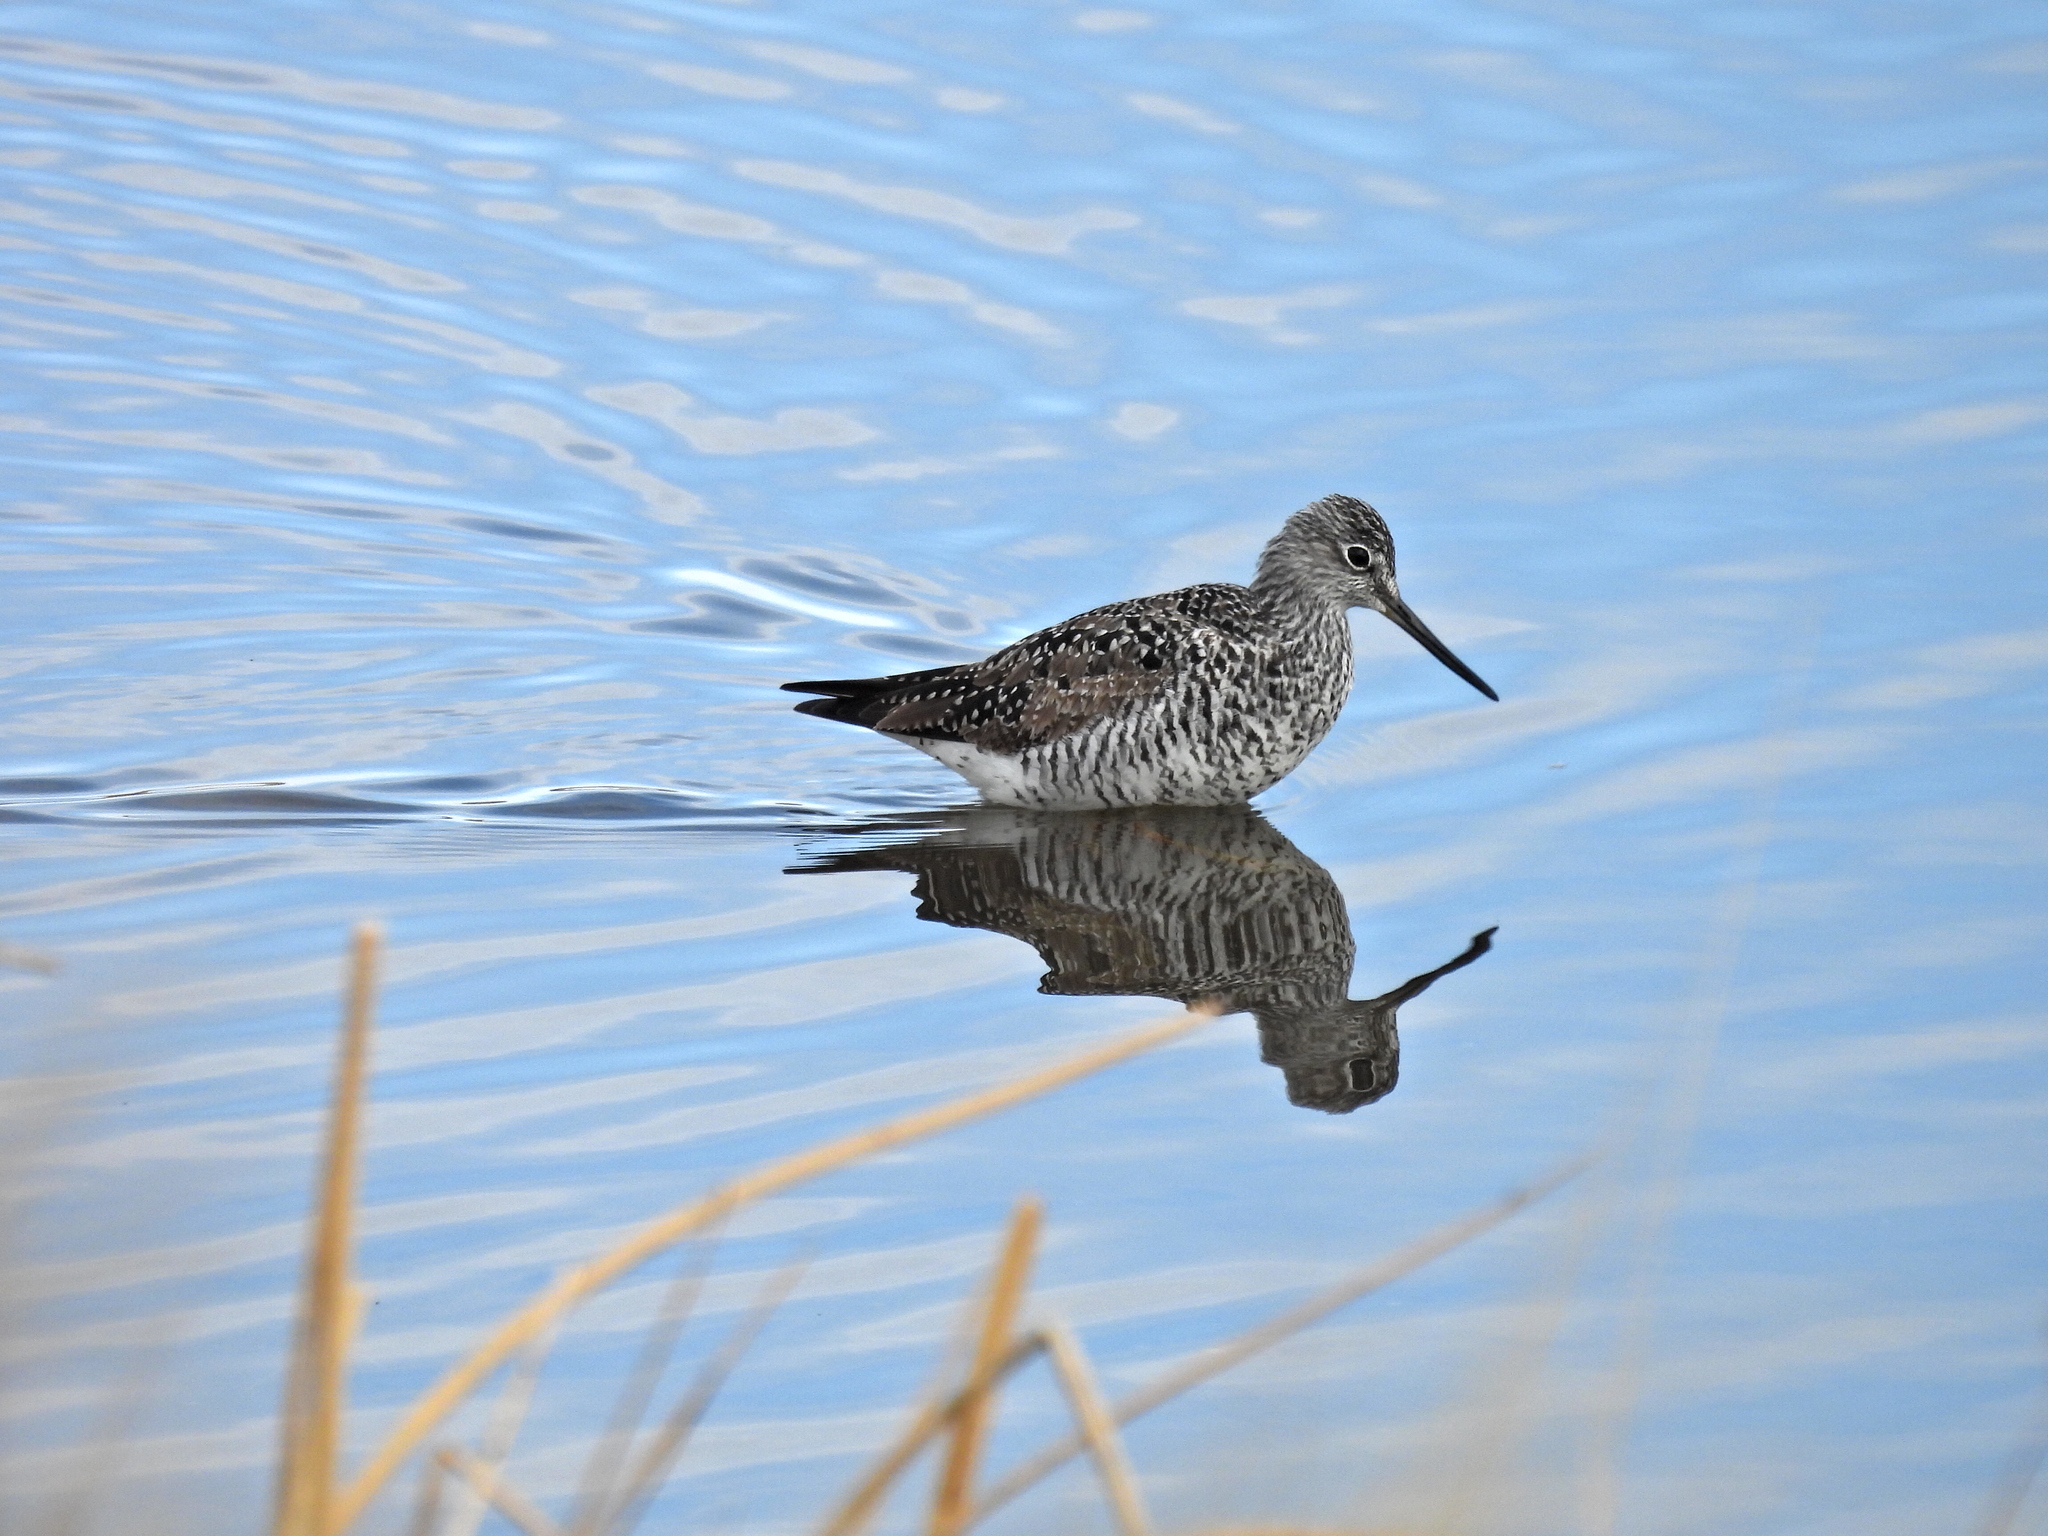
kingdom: Animalia
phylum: Chordata
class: Aves
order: Charadriiformes
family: Scolopacidae
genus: Tringa
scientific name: Tringa melanoleuca
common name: Greater yellowlegs
